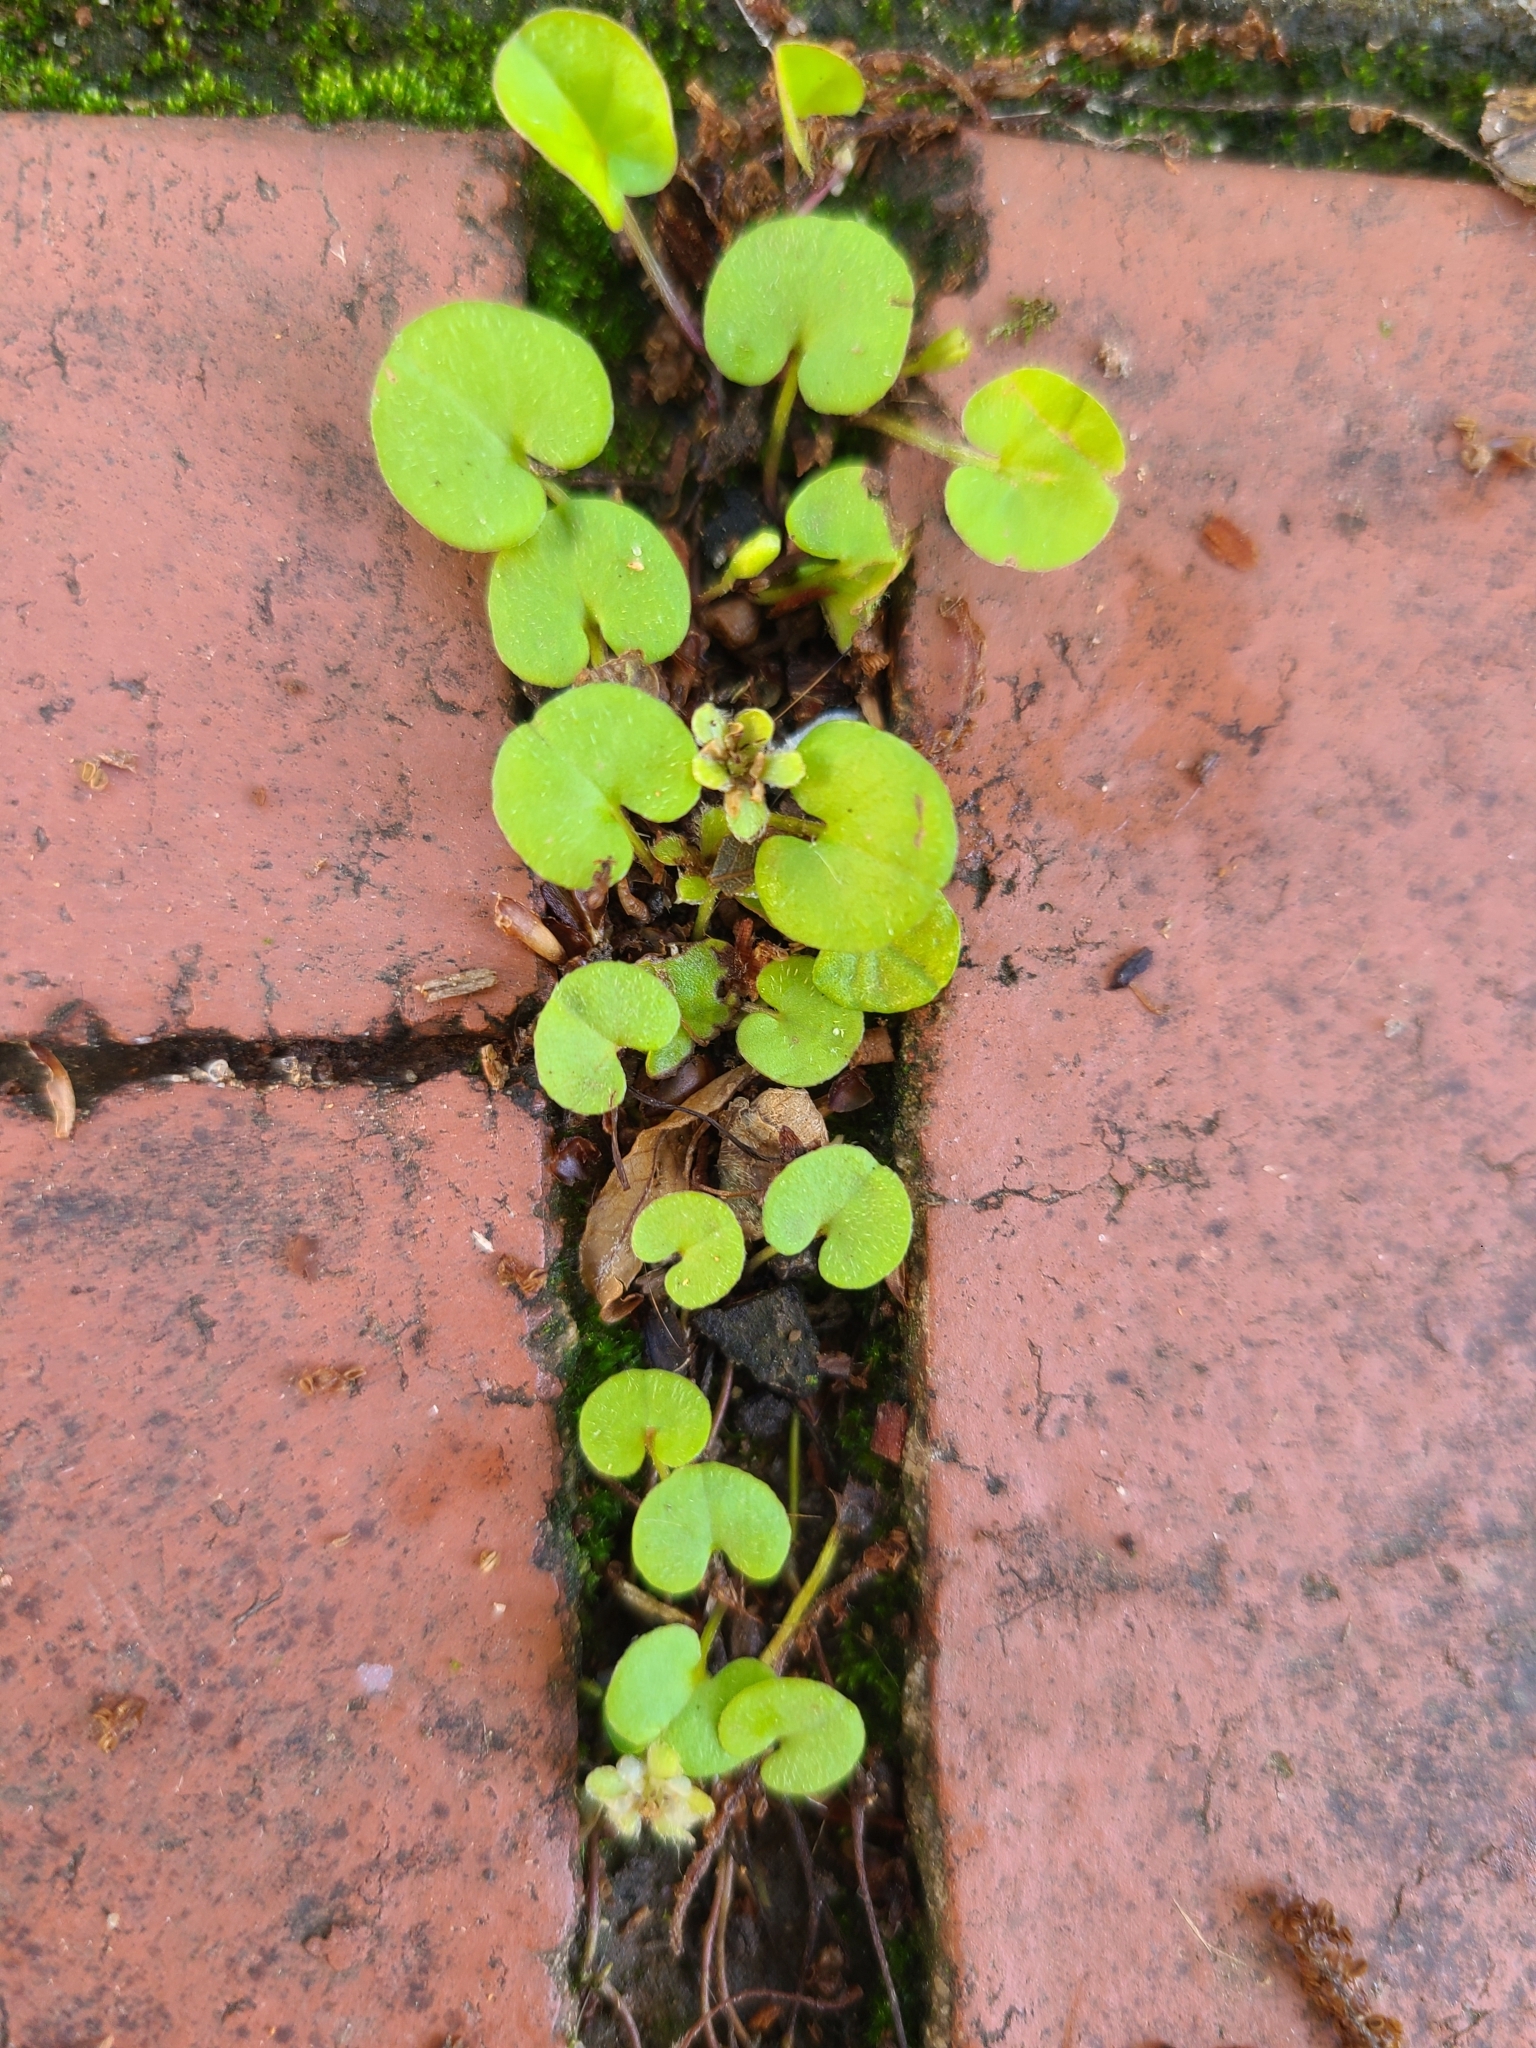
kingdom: Plantae
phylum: Tracheophyta
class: Magnoliopsida
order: Solanales
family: Convolvulaceae
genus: Dichondra
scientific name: Dichondra carolinensis
